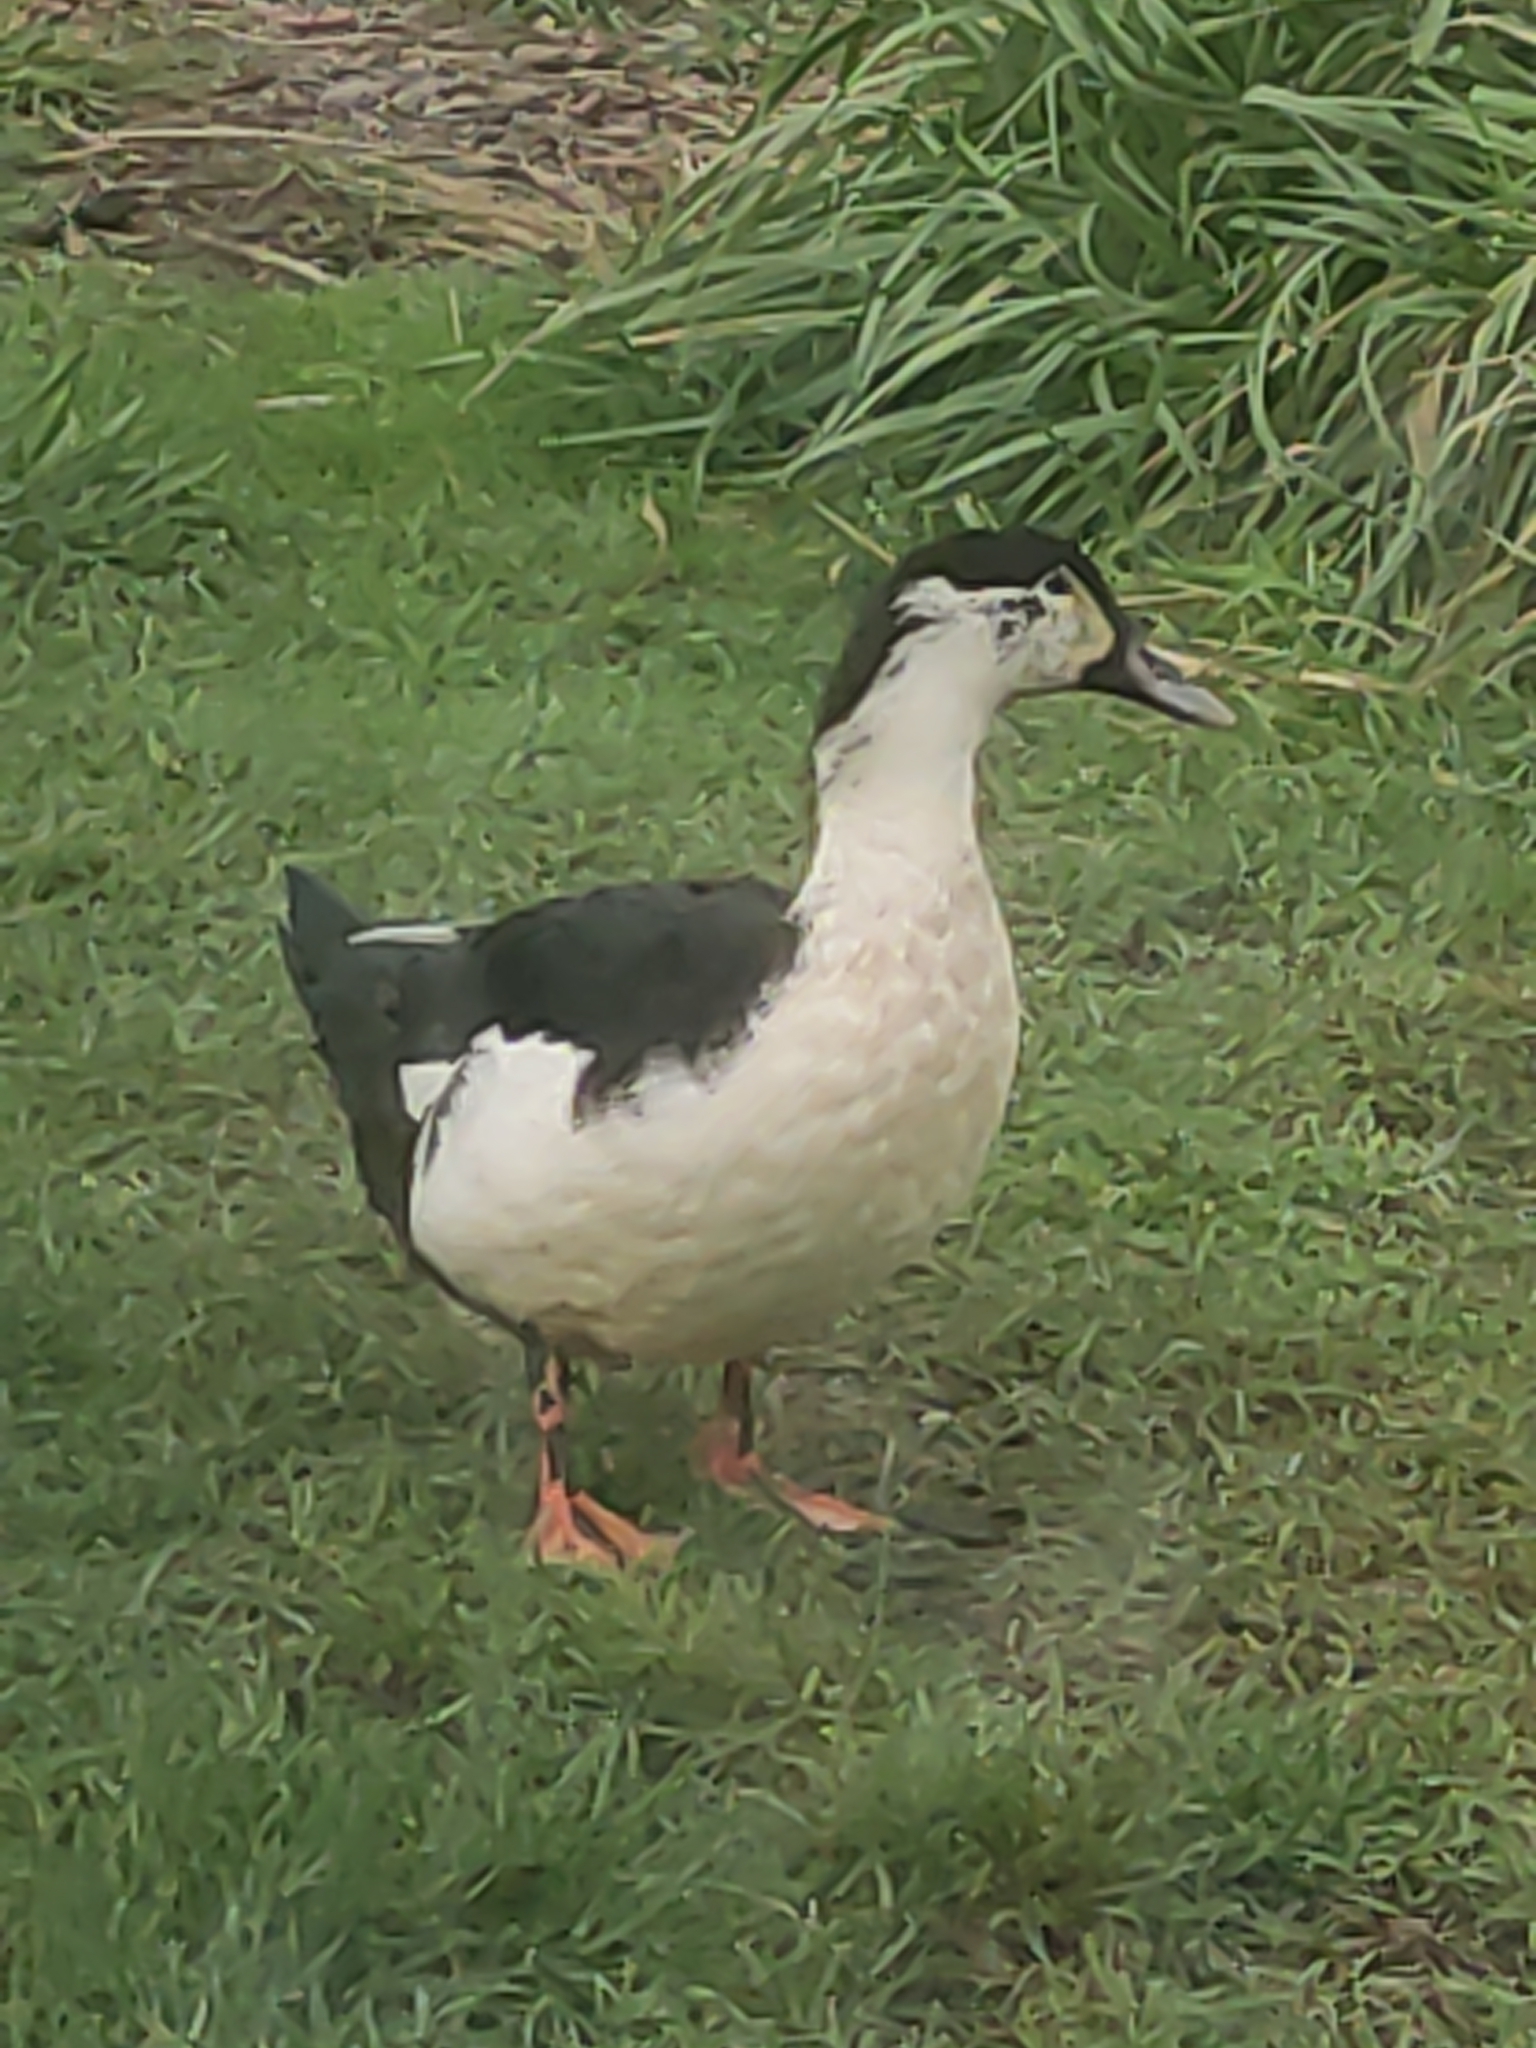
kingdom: Animalia
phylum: Chordata
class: Aves
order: Anseriformes
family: Anatidae
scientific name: Anatidae
